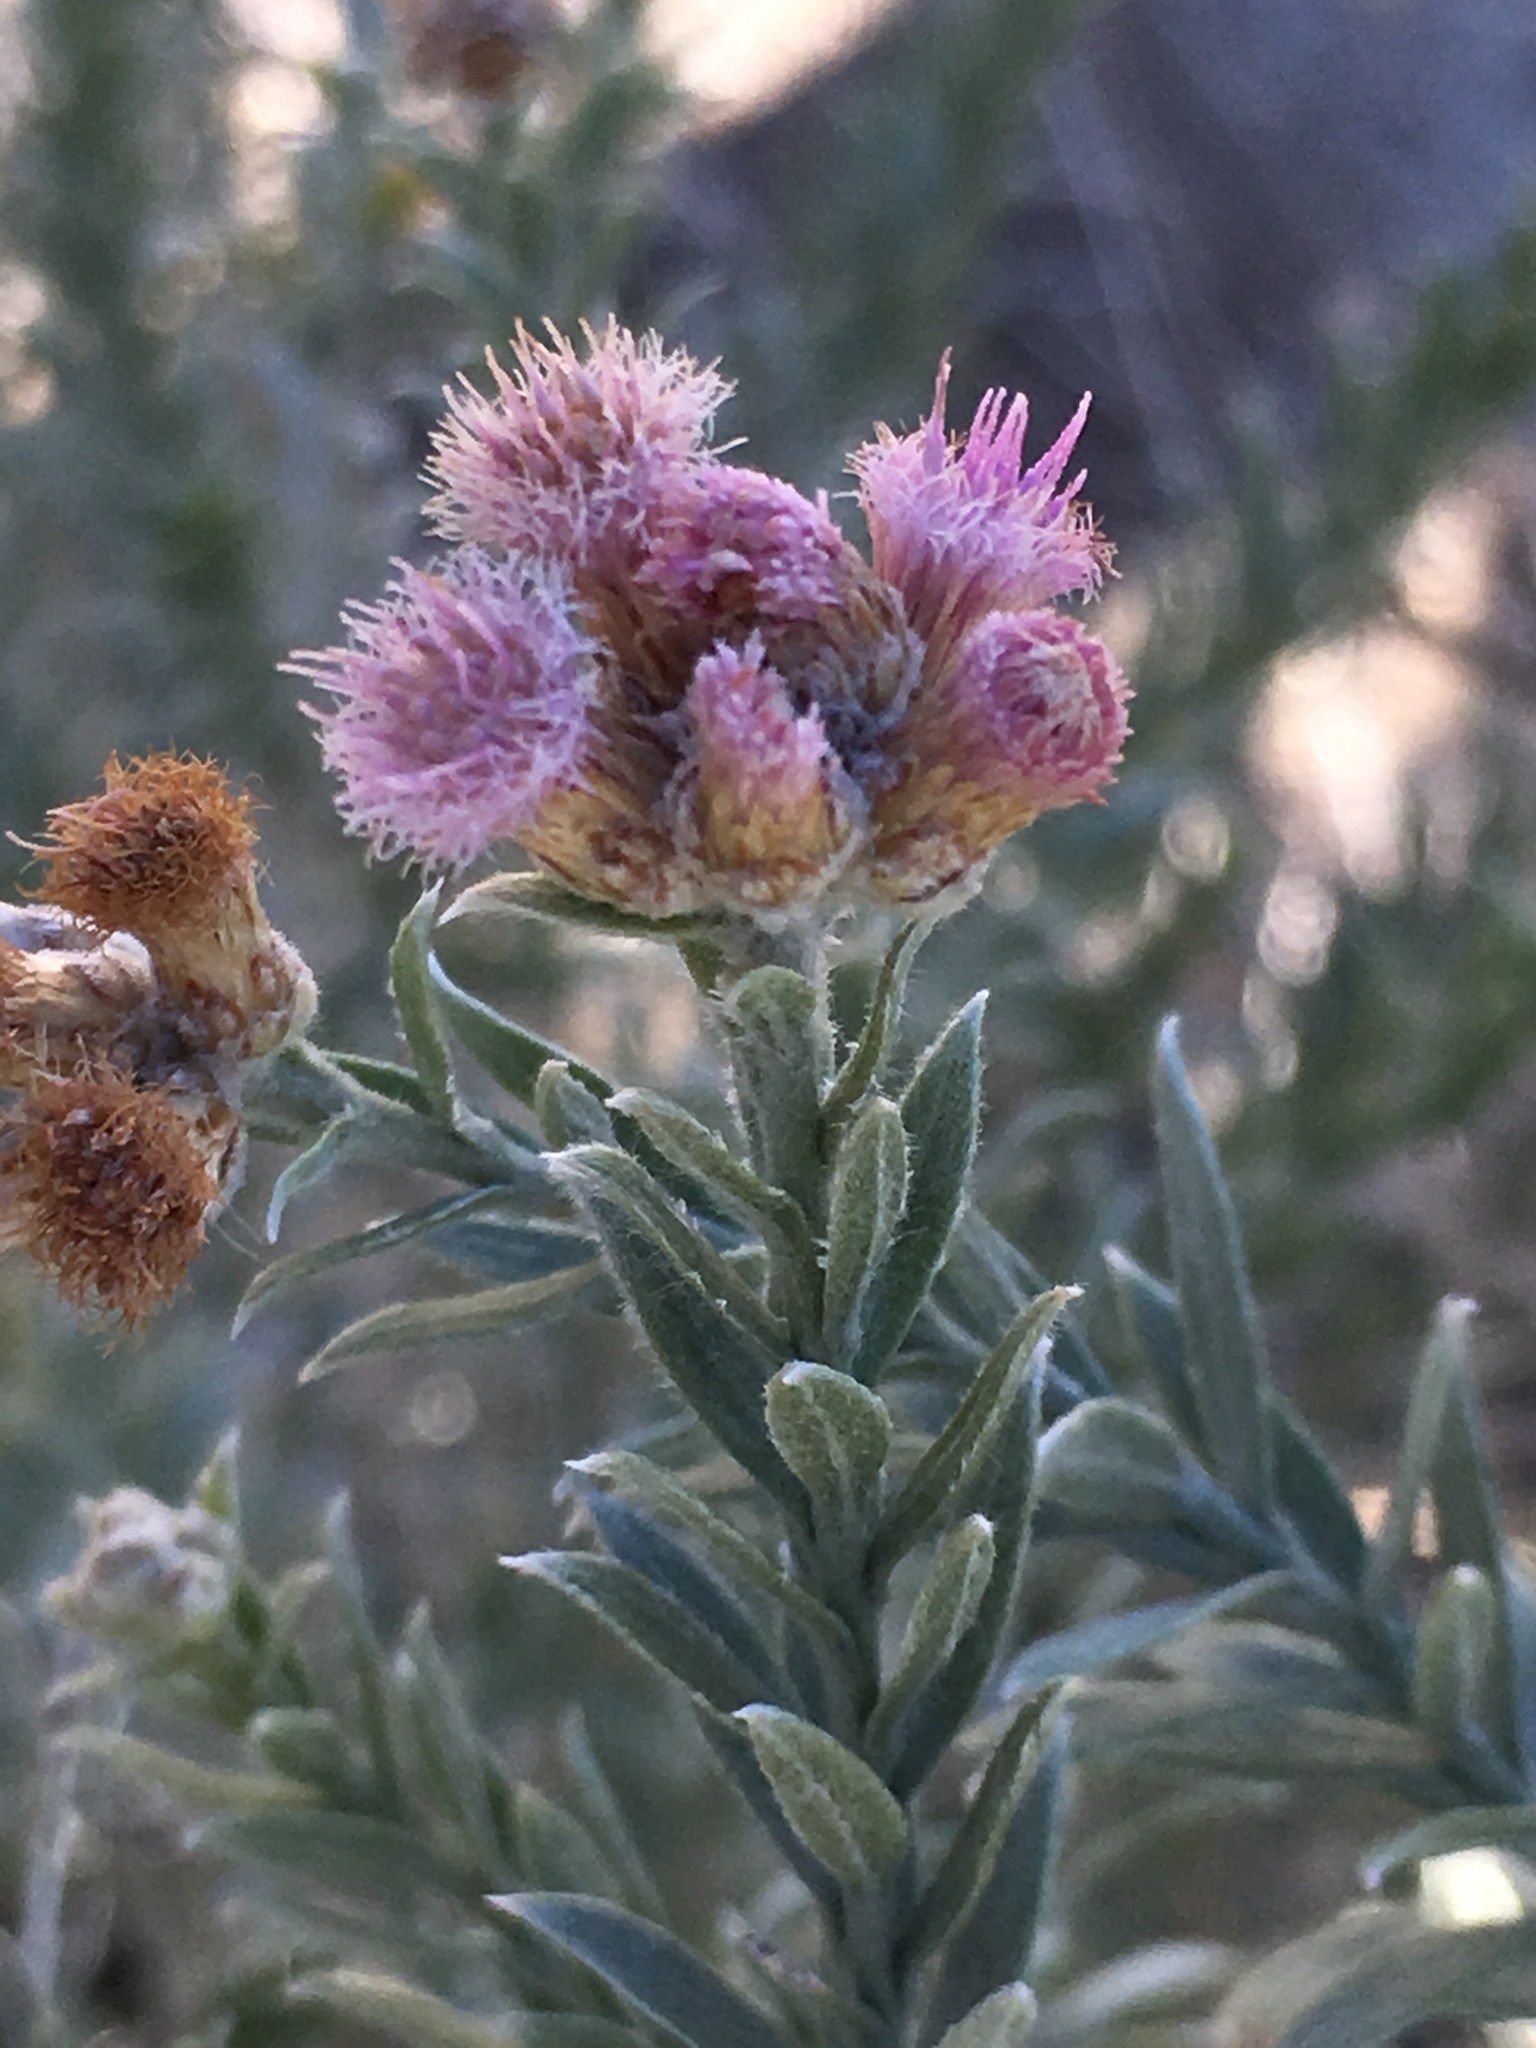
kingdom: Plantae
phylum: Tracheophyta
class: Magnoliopsida
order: Asterales
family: Asteraceae
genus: Pluchea
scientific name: Pluchea sericea
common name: Arrow-weed
